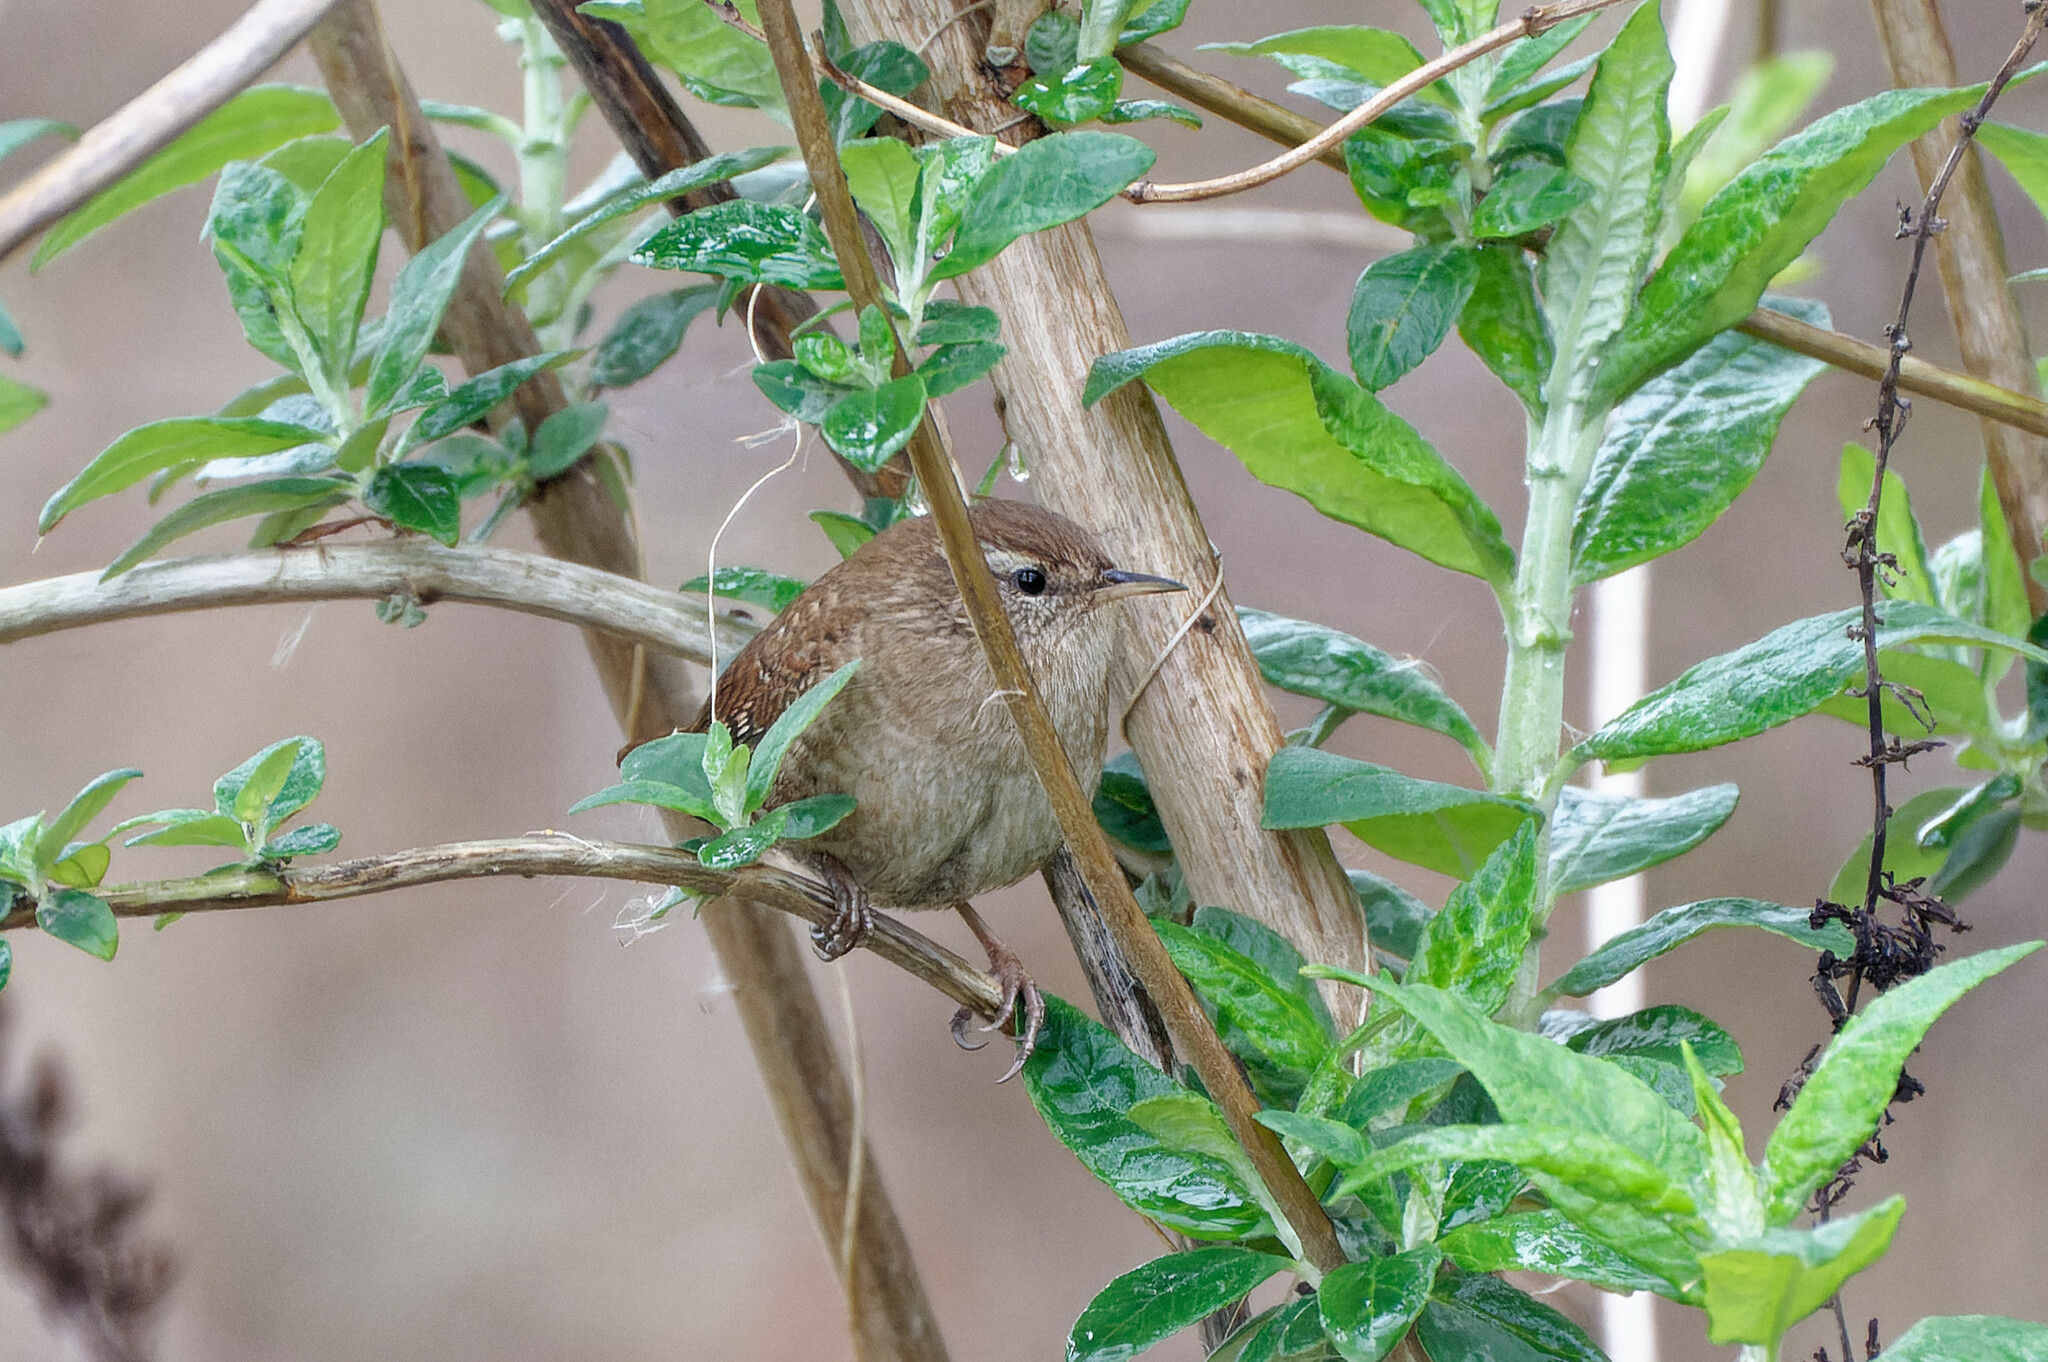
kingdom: Animalia
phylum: Chordata
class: Aves
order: Passeriformes
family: Troglodytidae
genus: Troglodytes
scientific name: Troglodytes troglodytes
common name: Eurasian wren
